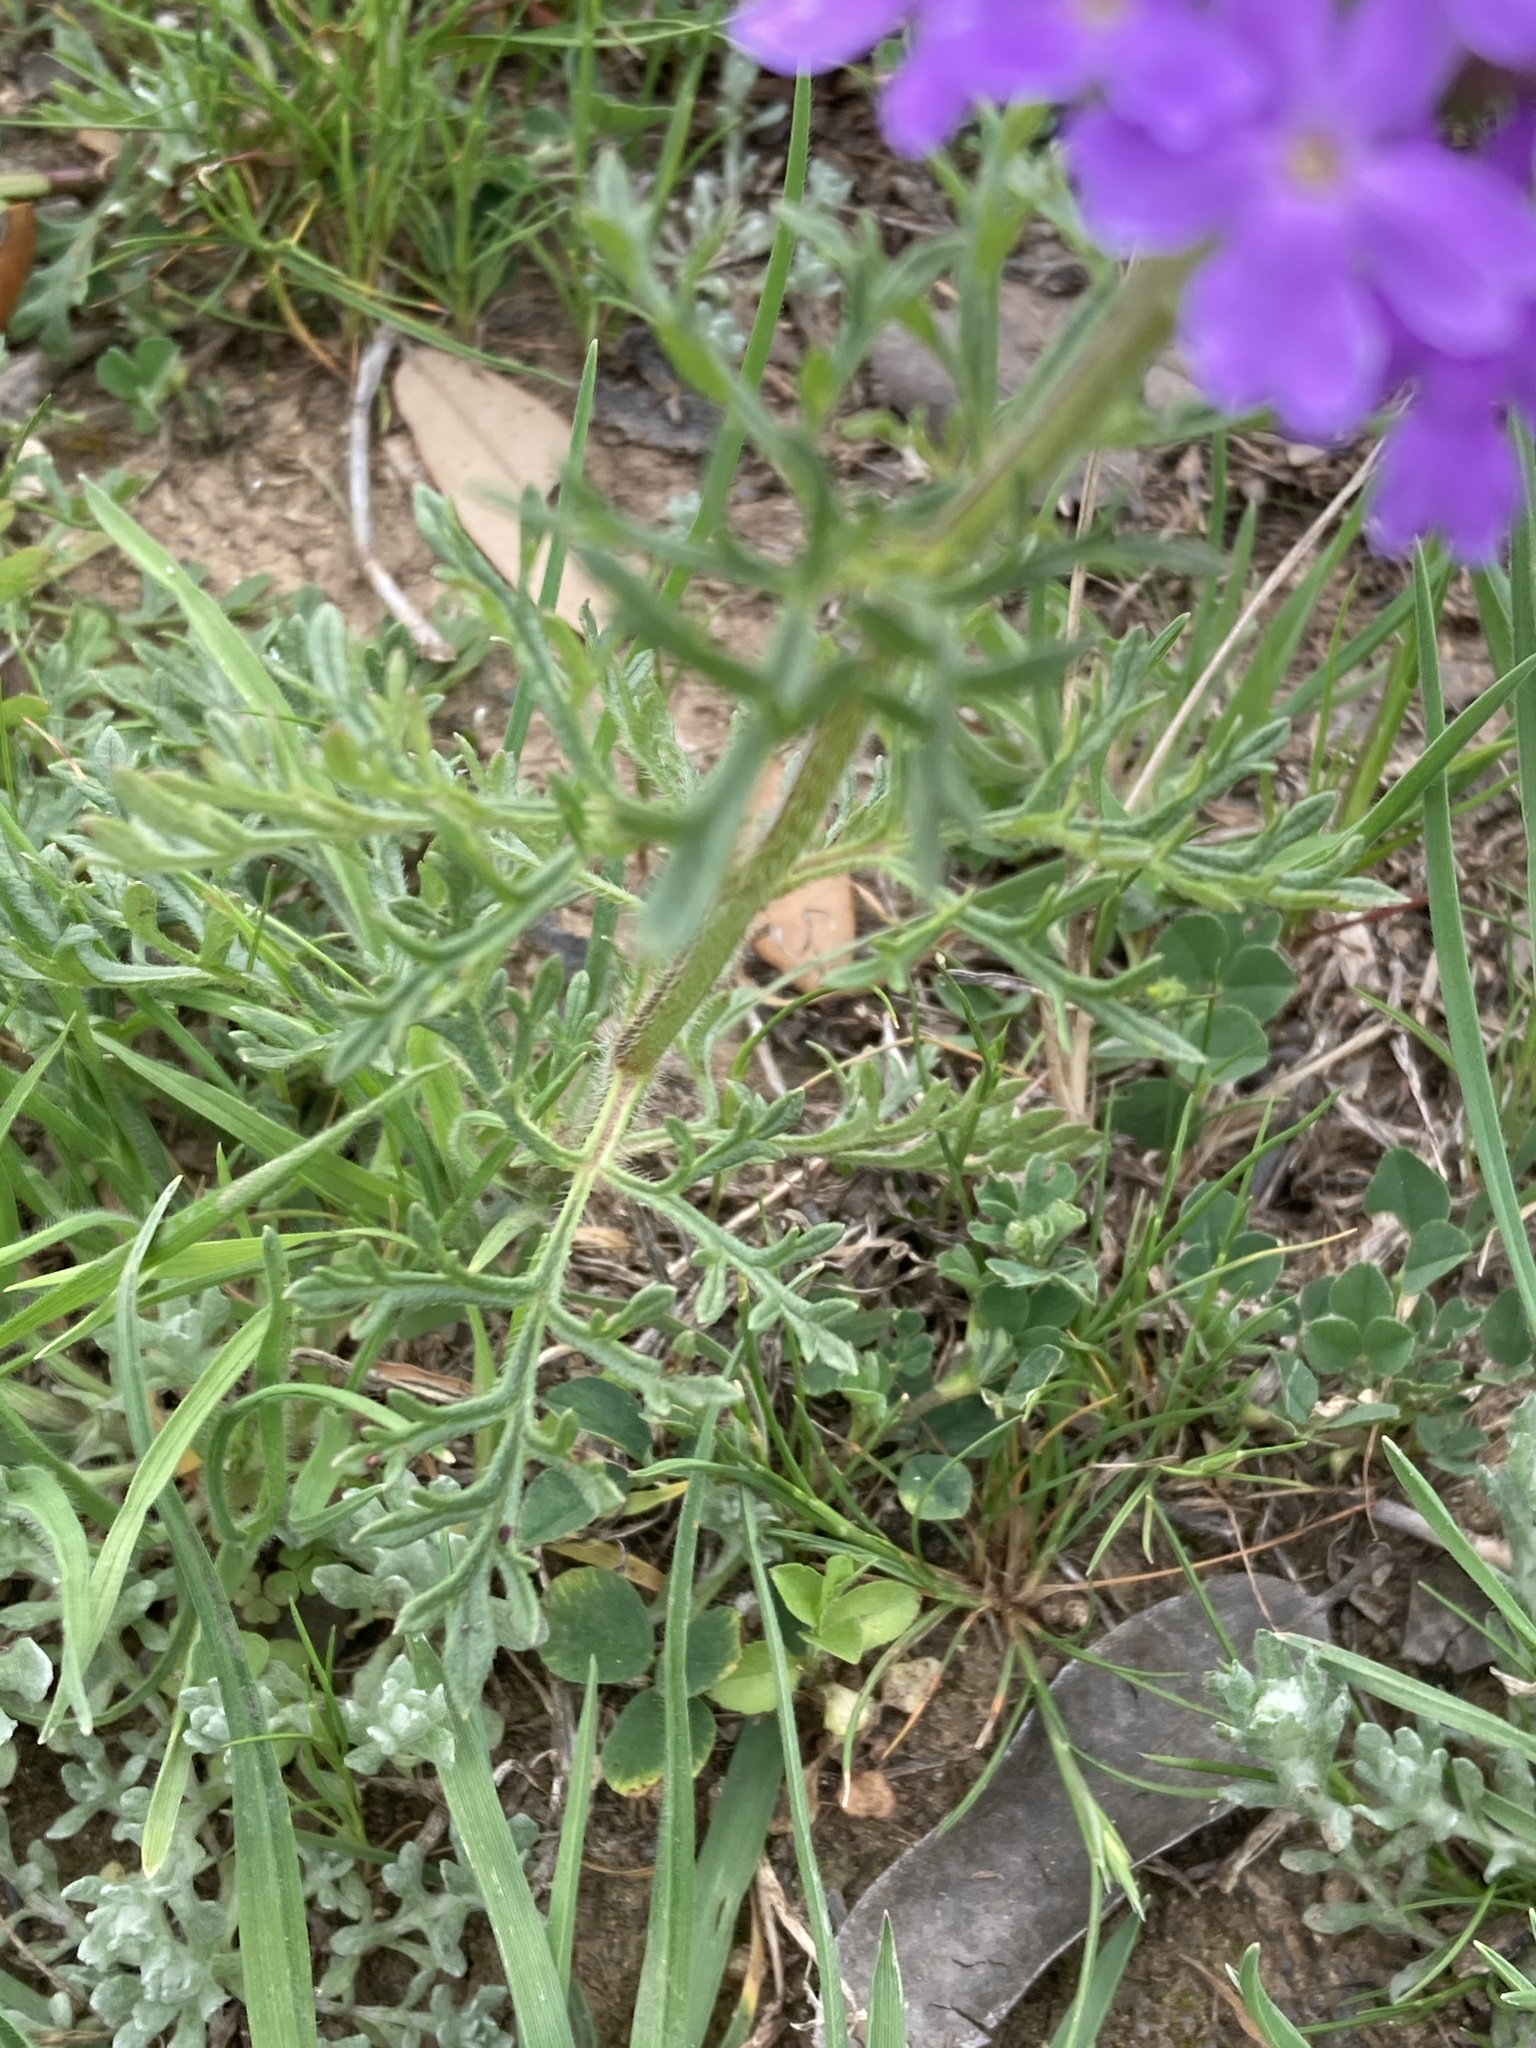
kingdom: Plantae
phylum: Tracheophyta
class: Magnoliopsida
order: Lamiales
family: Verbenaceae
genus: Verbena
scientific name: Verbena bipinnatifida
